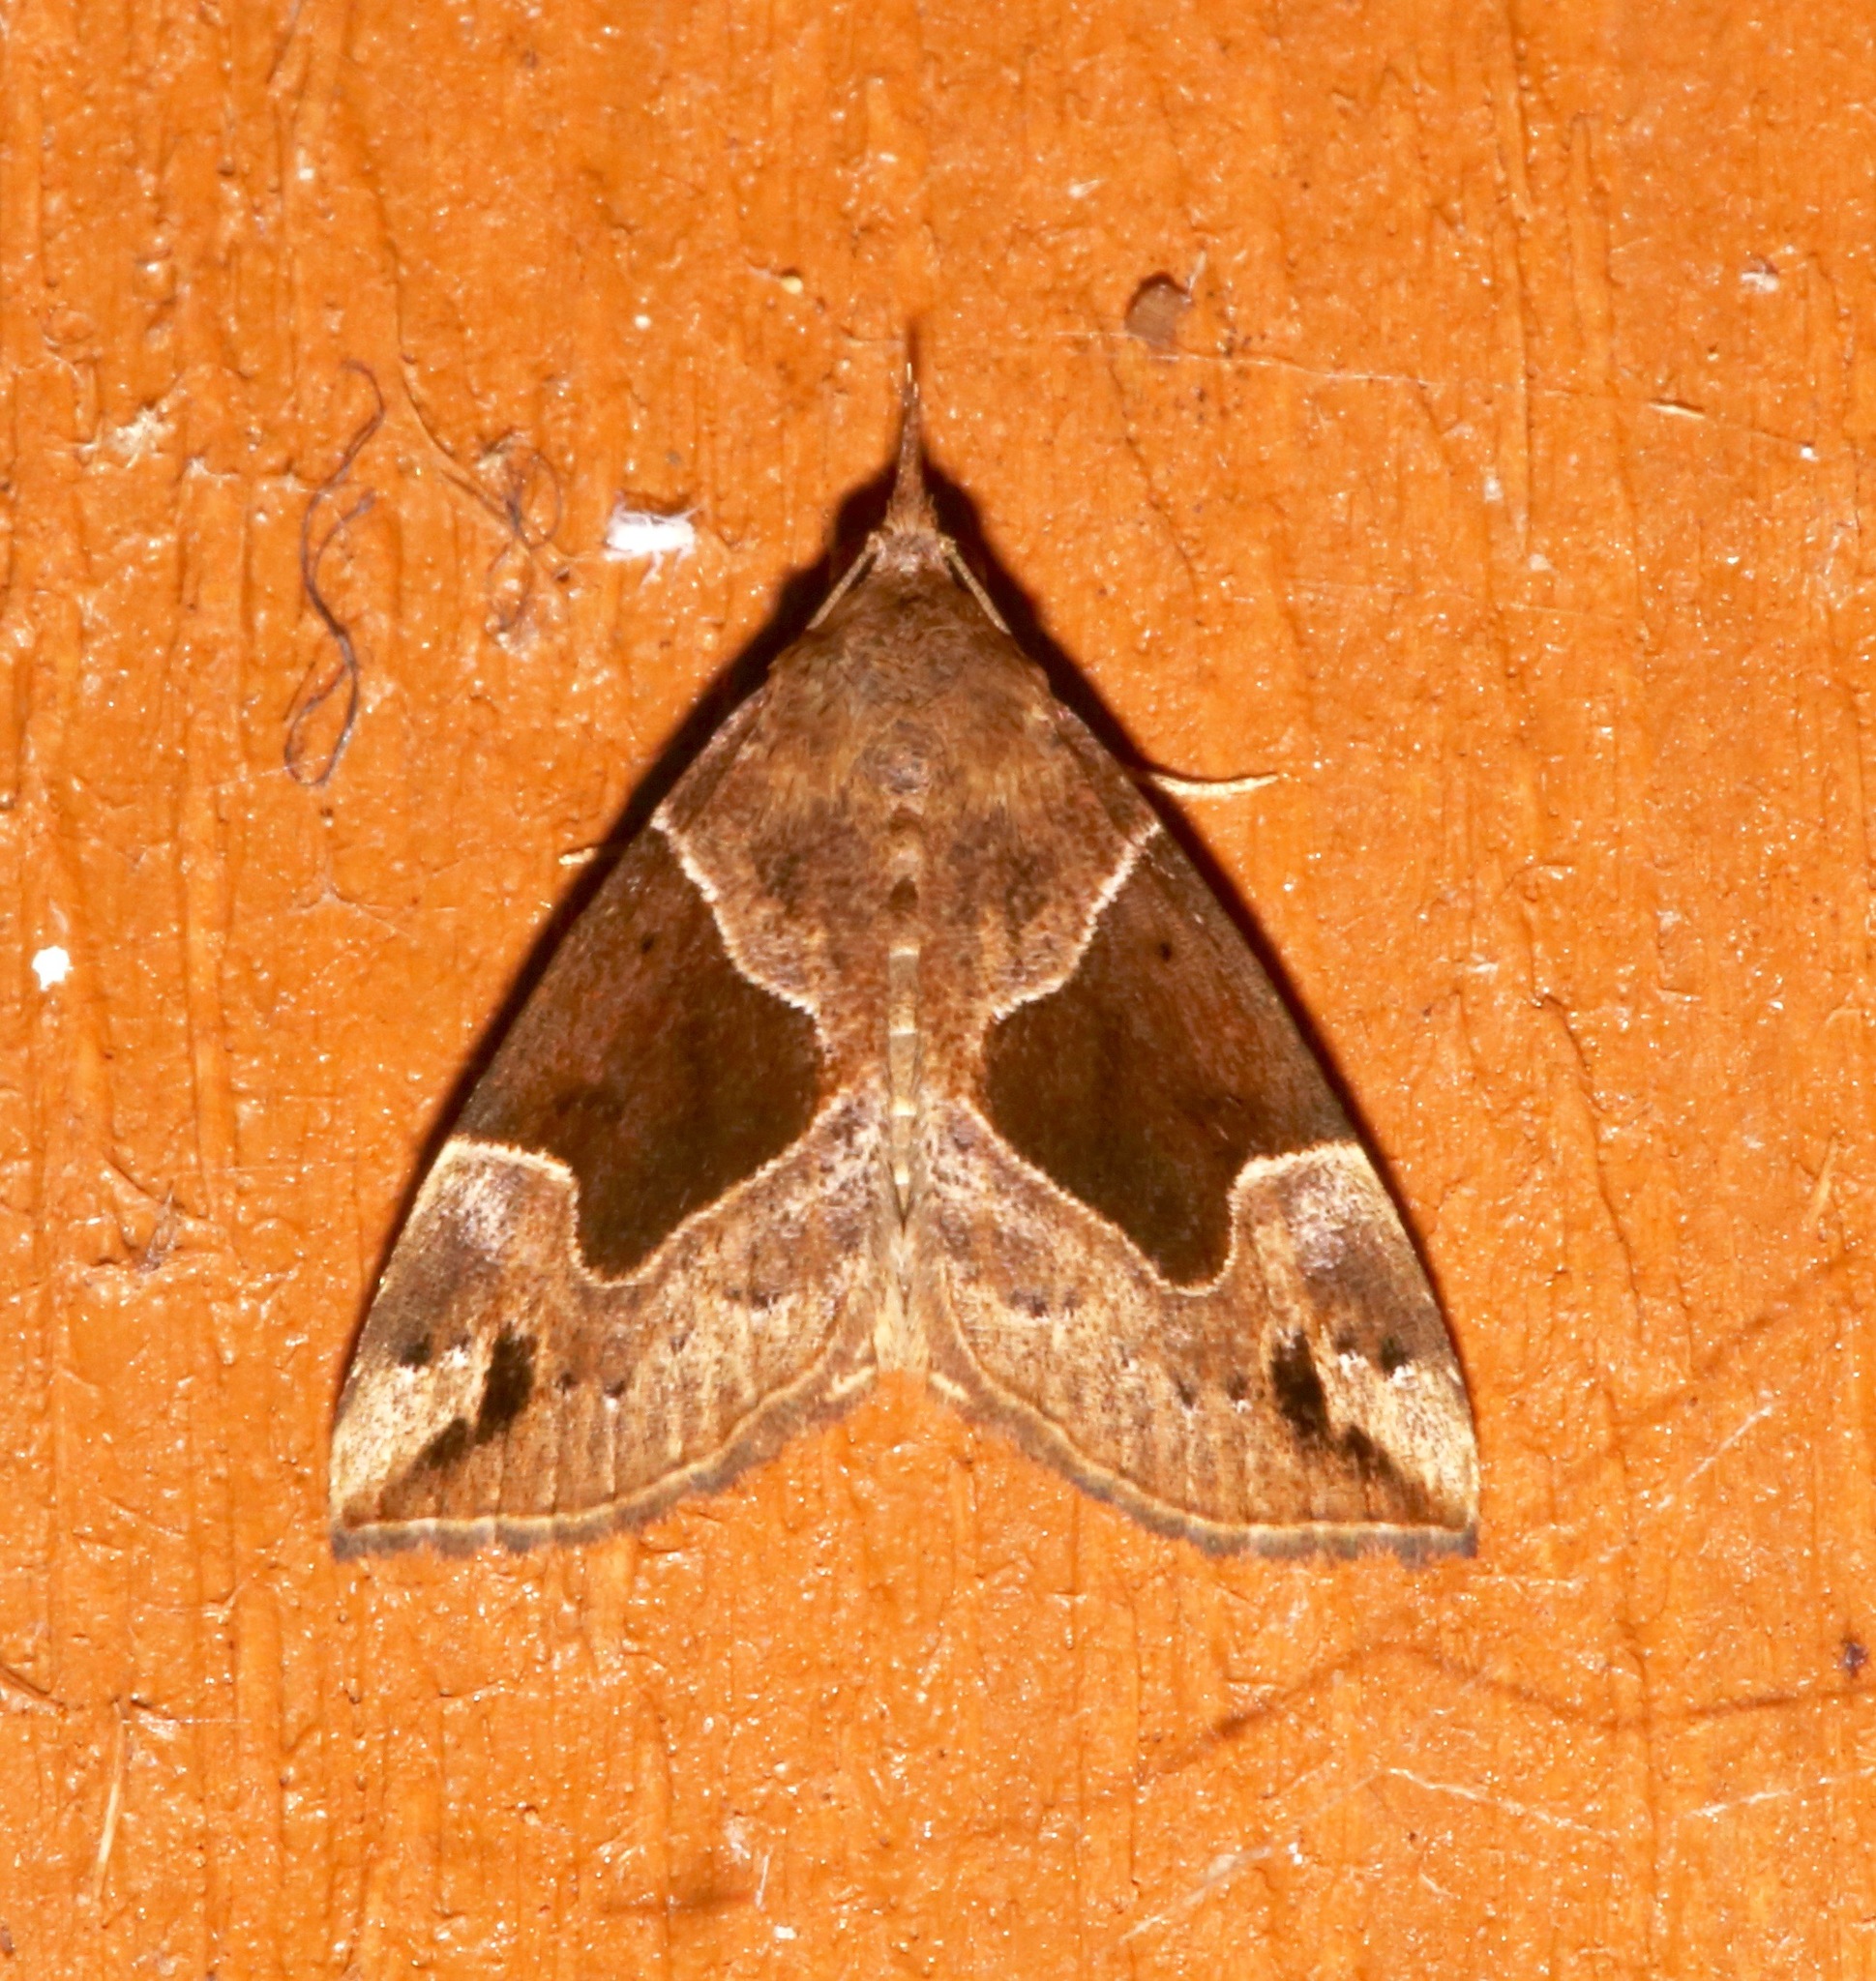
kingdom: Animalia
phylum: Arthropoda
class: Insecta
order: Lepidoptera
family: Erebidae
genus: Hypena
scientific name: Hypena manalis
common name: Flowing-line bomolocha moth
